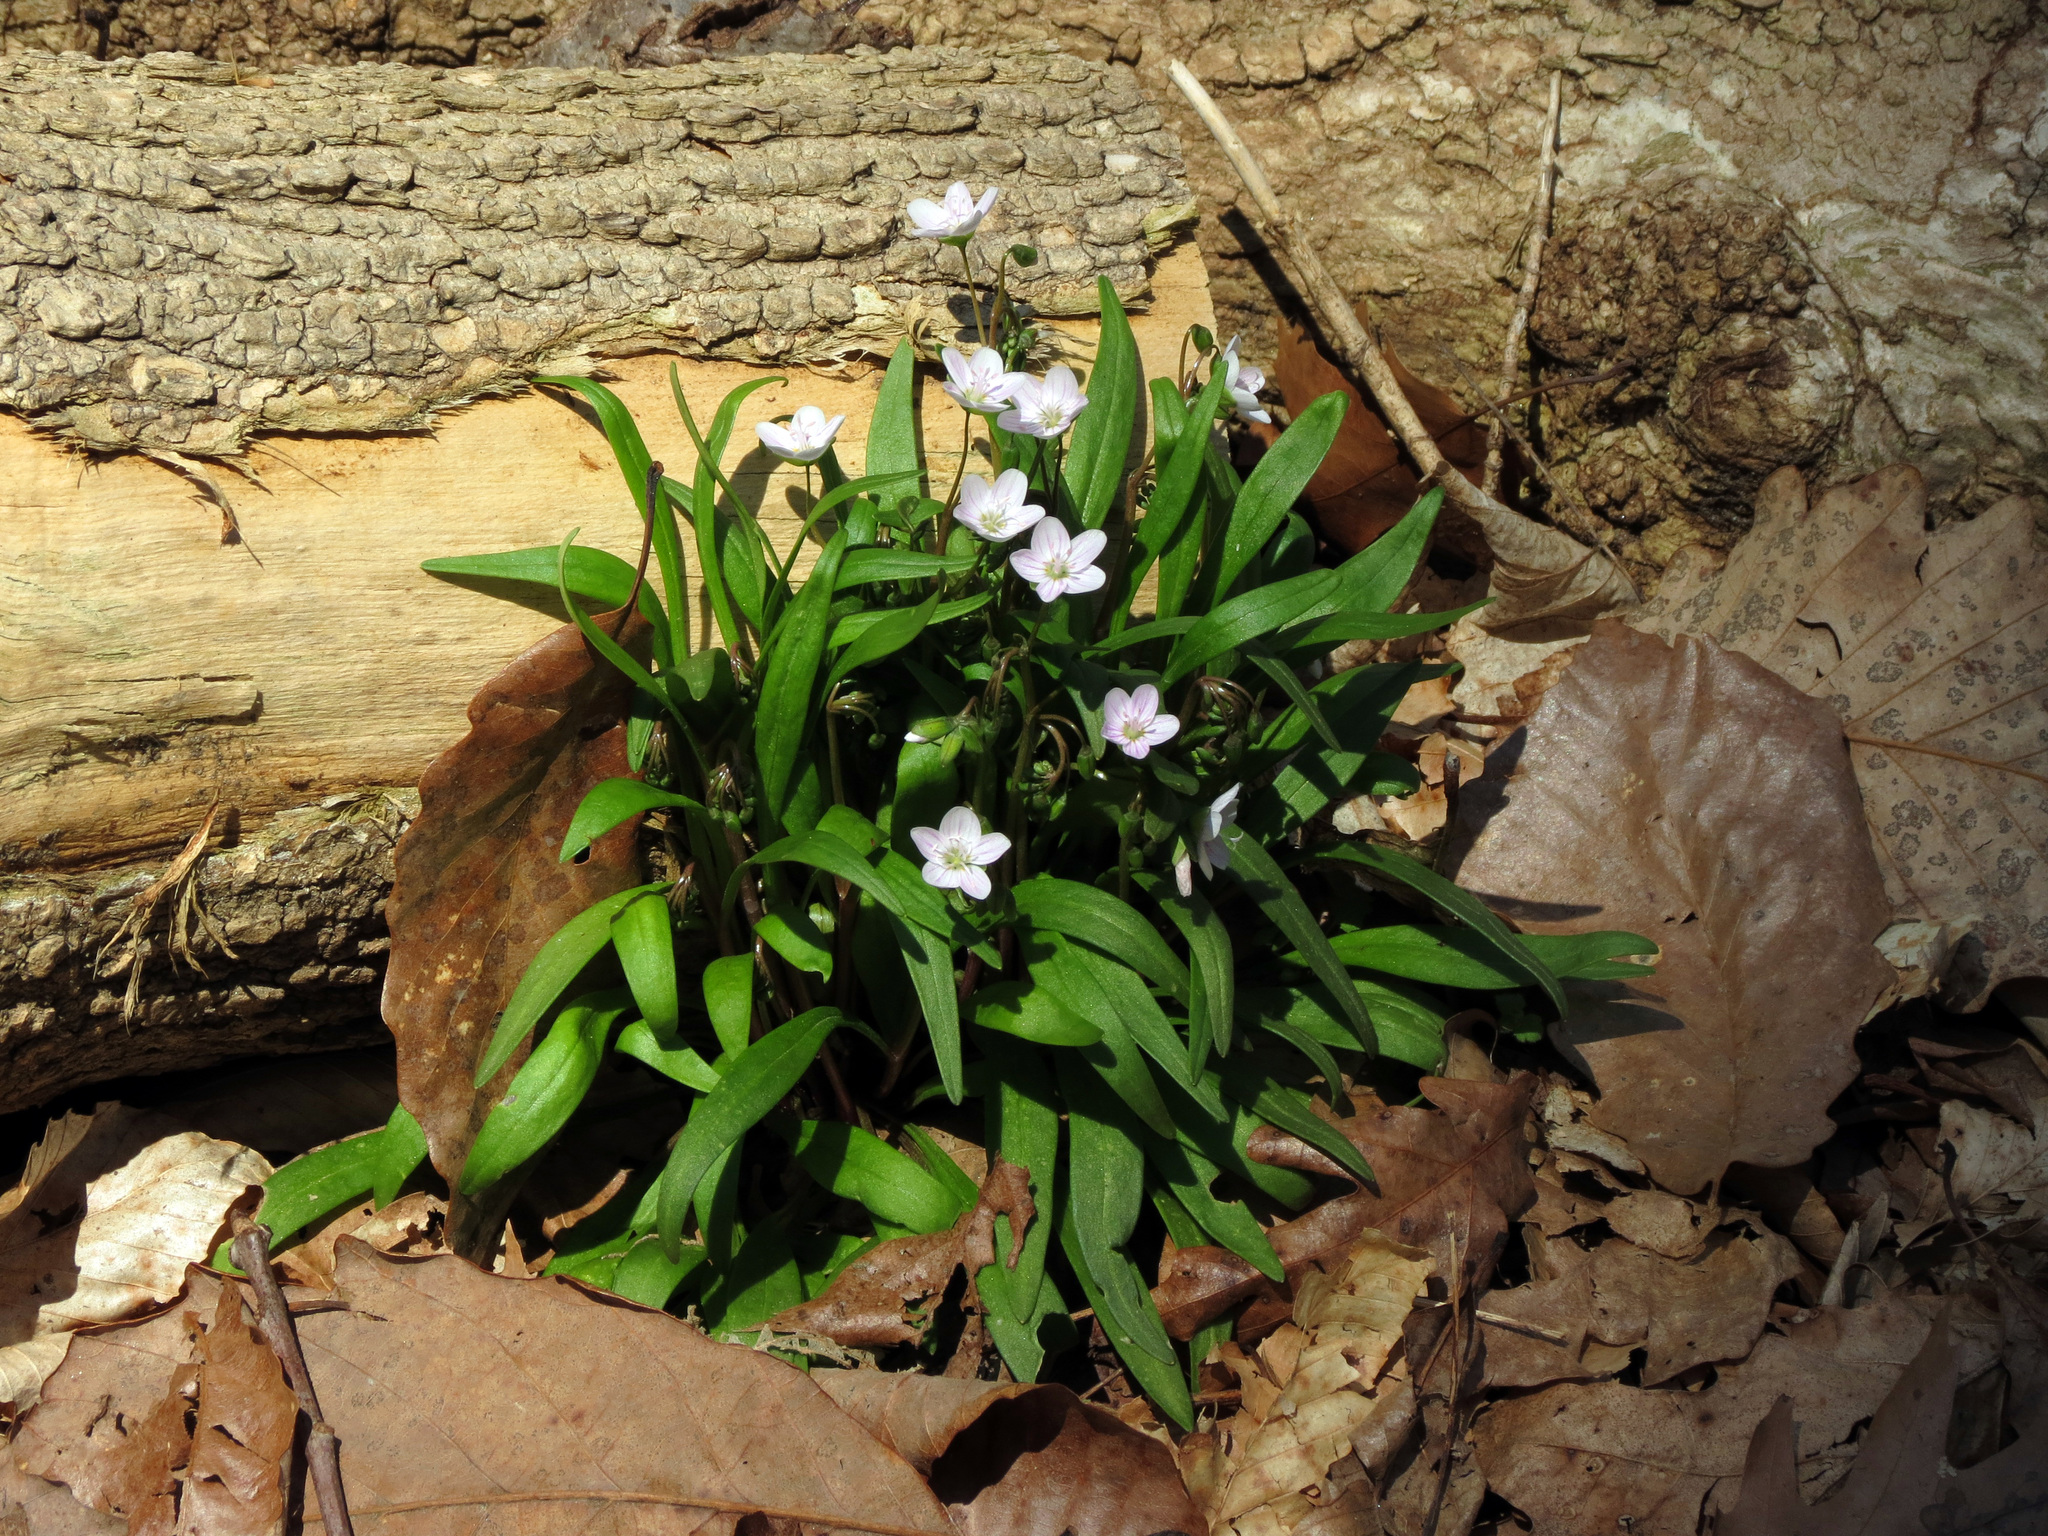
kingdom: Plantae
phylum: Tracheophyta
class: Magnoliopsida
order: Caryophyllales
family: Montiaceae
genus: Claytonia
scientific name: Claytonia virginica
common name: Virginia springbeauty
